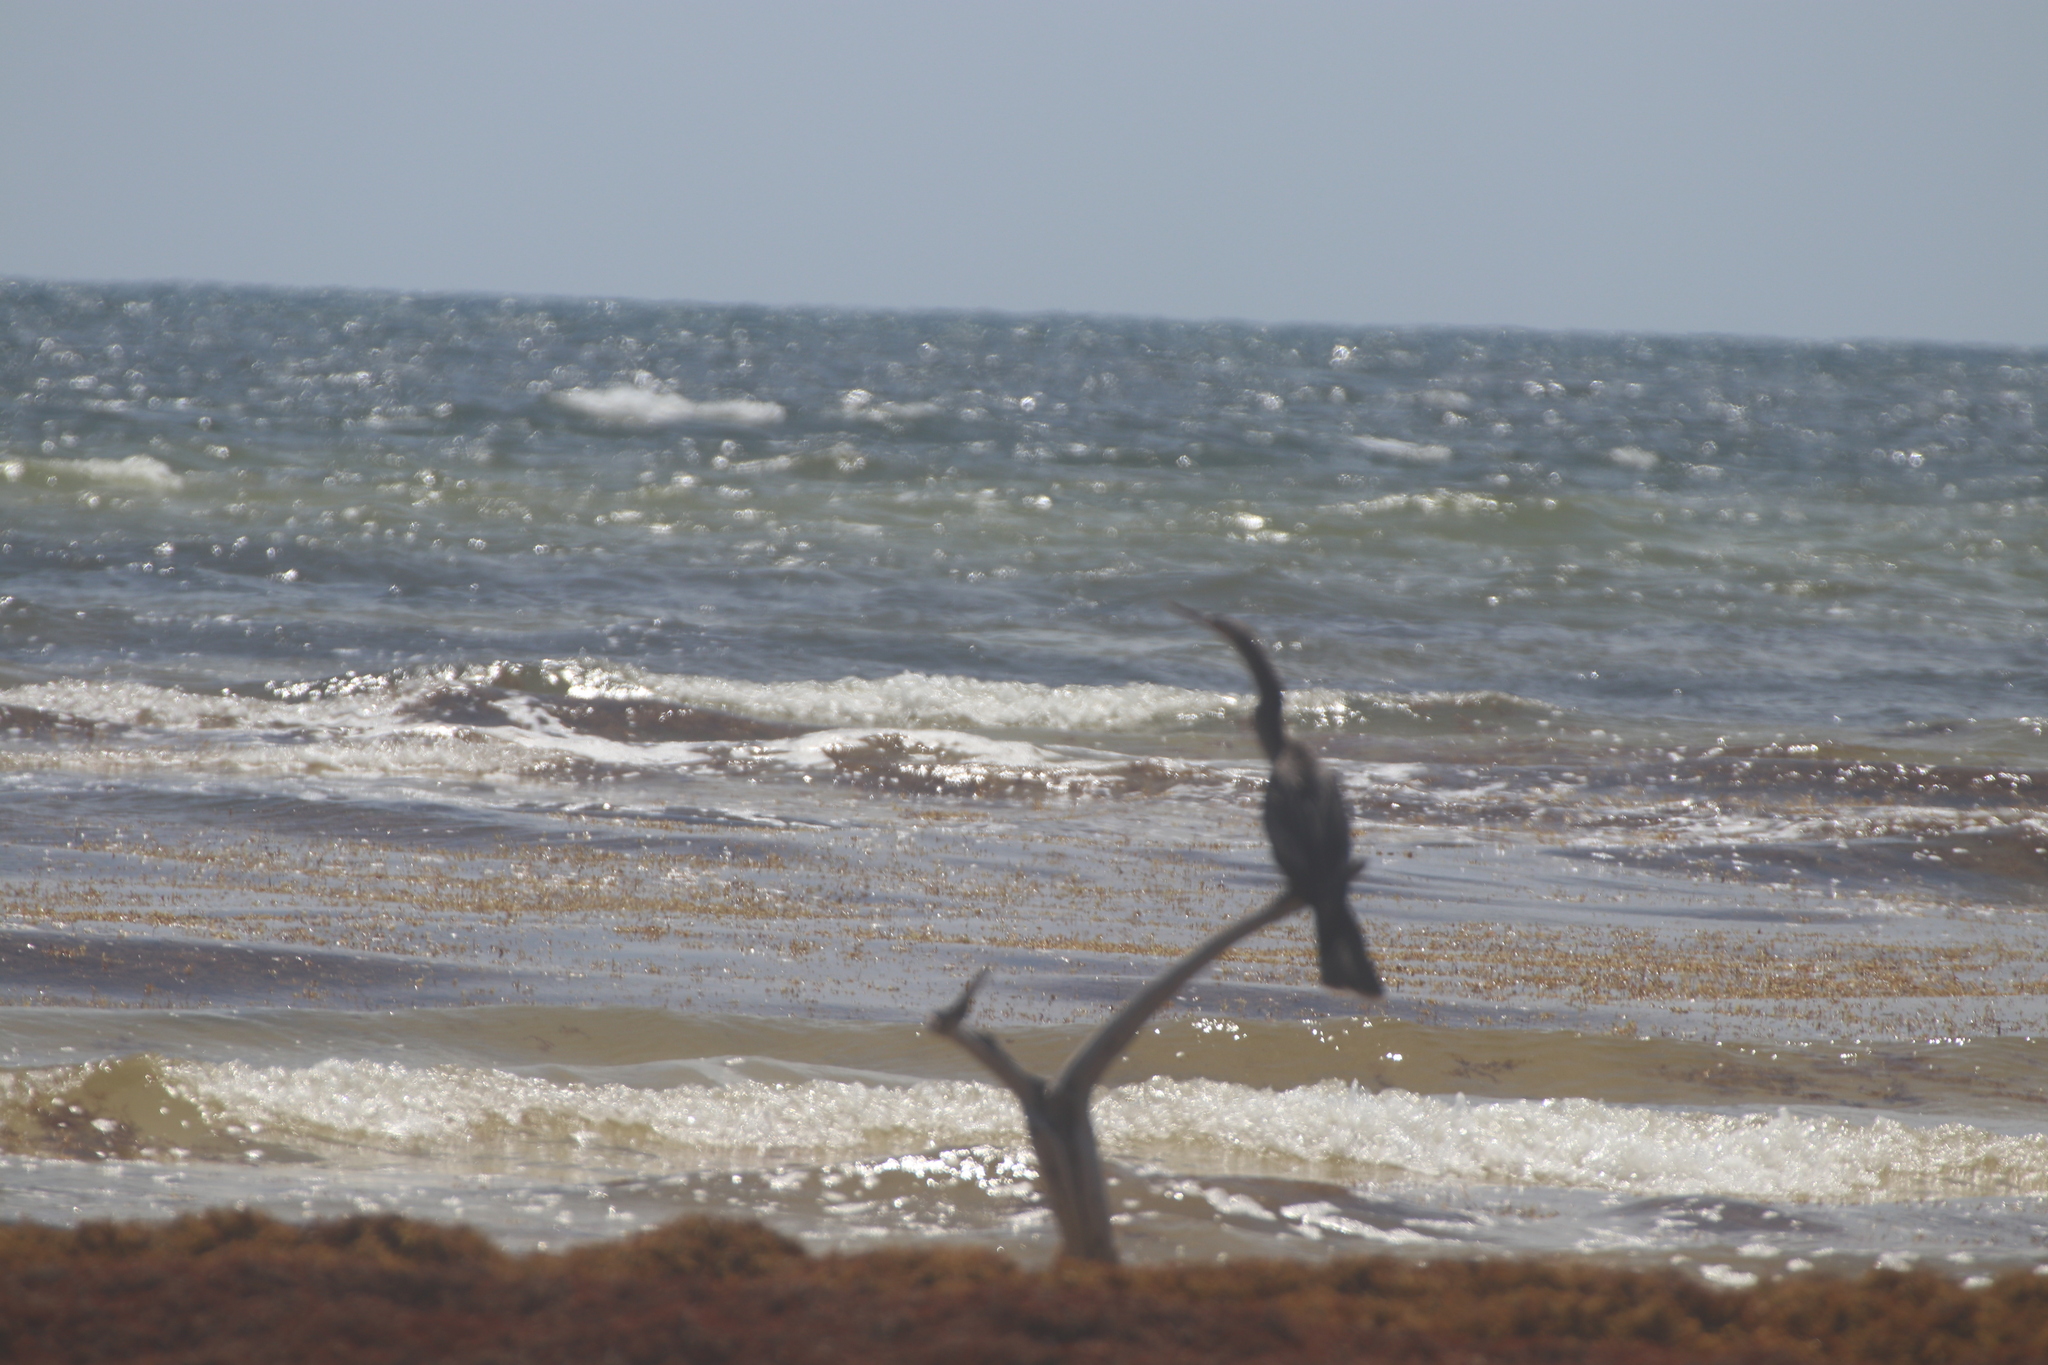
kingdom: Animalia
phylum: Chordata
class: Aves
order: Suliformes
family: Anhingidae
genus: Anhinga
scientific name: Anhinga anhinga
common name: Anhinga
